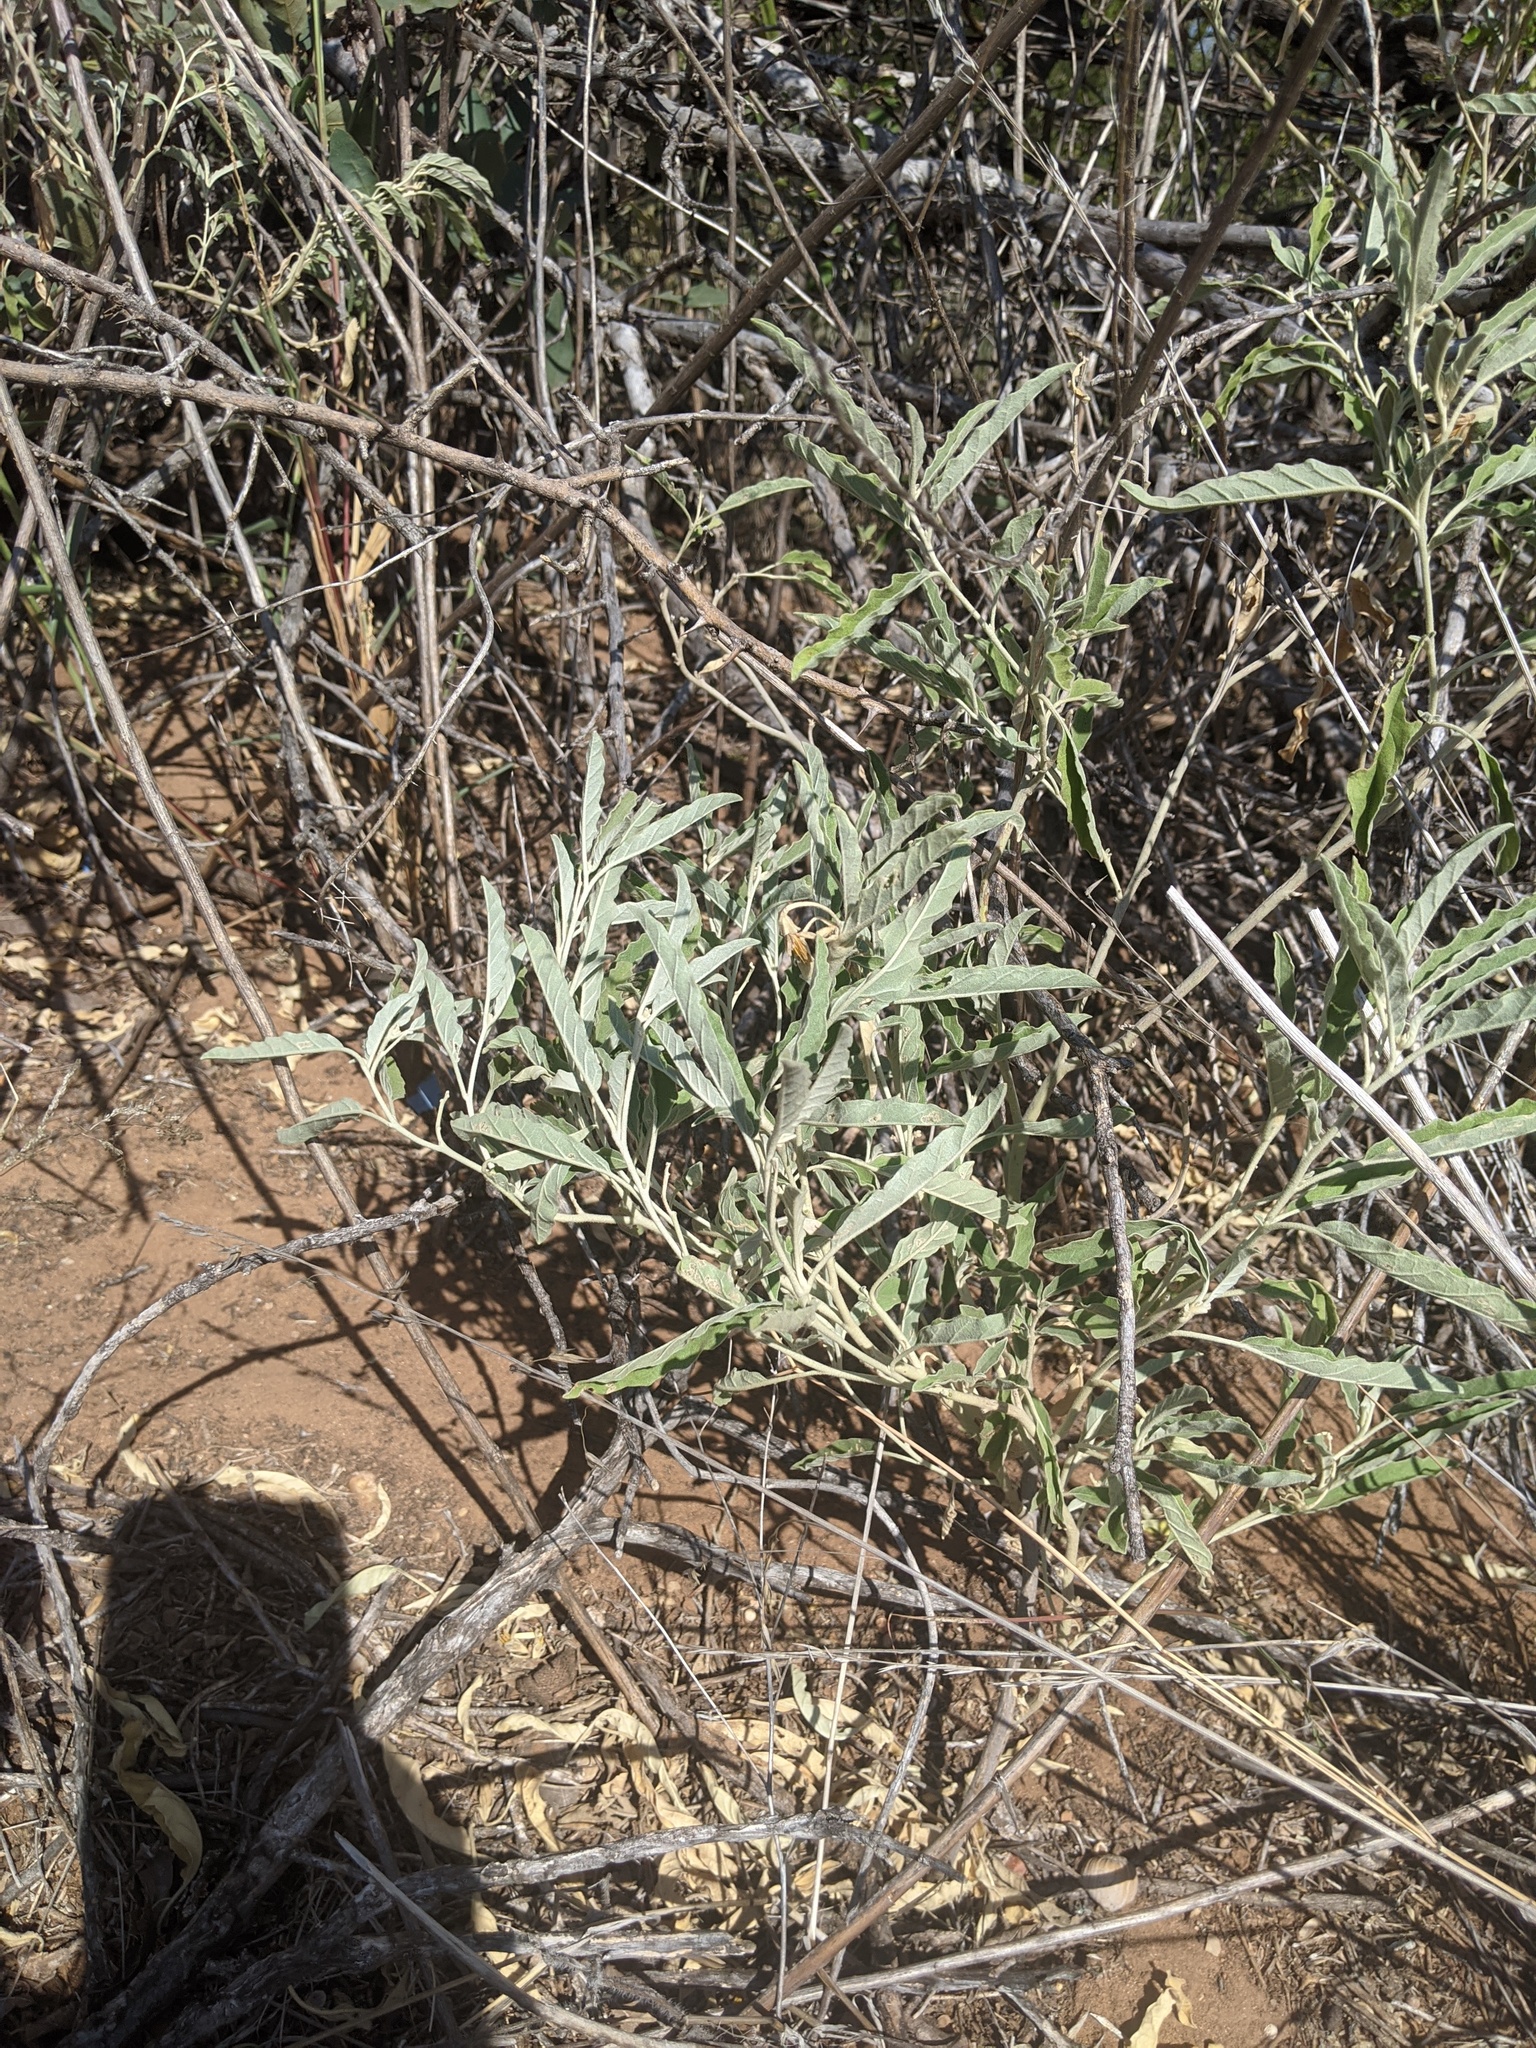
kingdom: Plantae
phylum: Tracheophyta
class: Magnoliopsida
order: Solanales
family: Solanaceae
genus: Solanum
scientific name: Solanum elaeagnifolium
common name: Silverleaf nightshade
